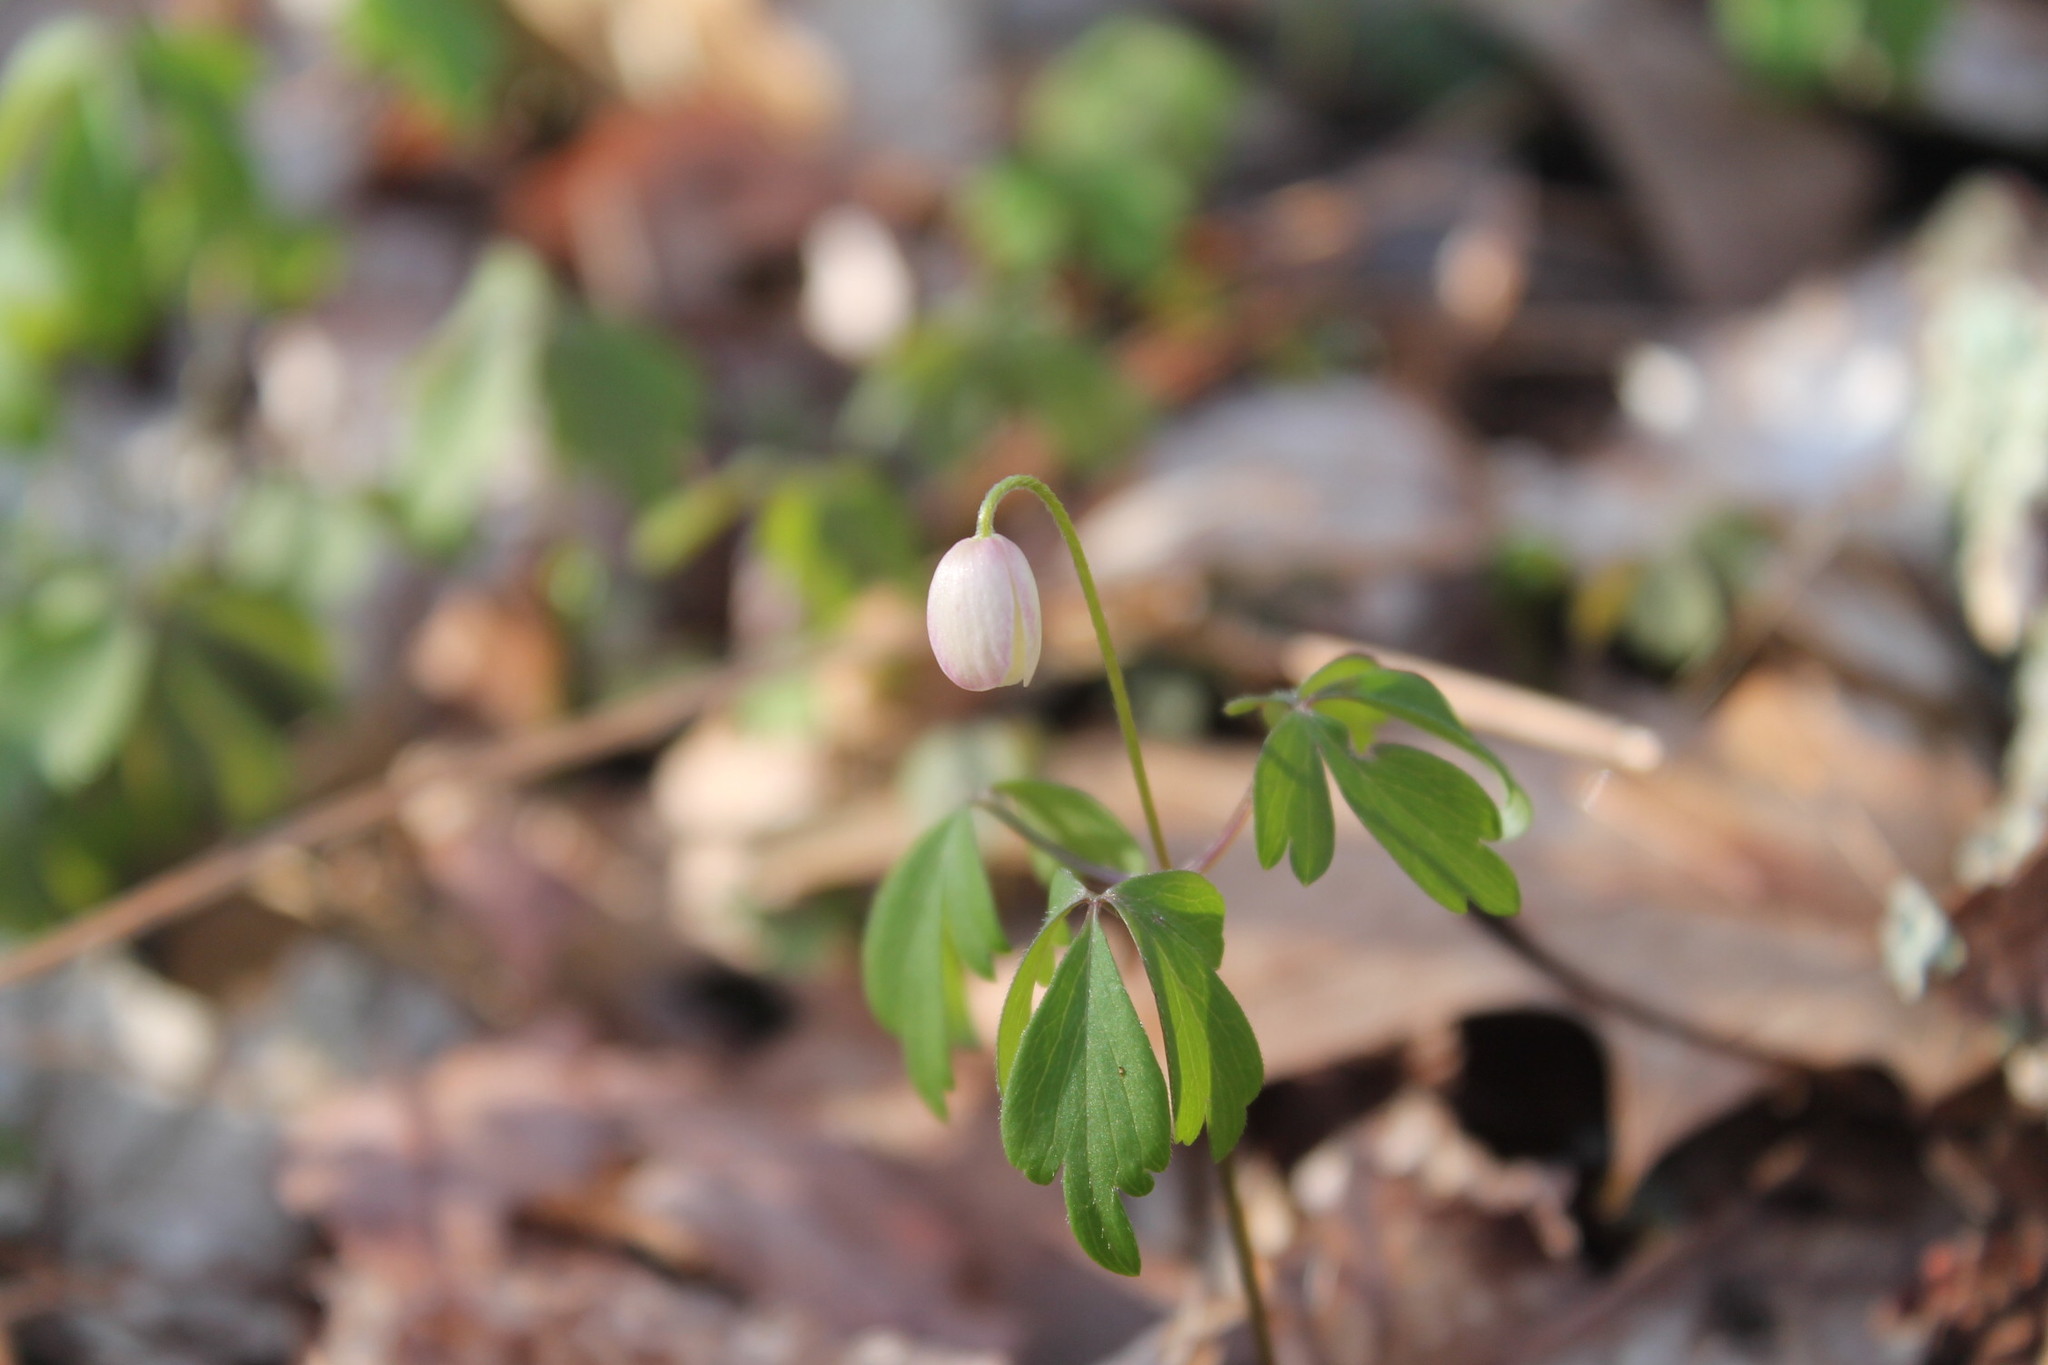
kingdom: Plantae
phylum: Tracheophyta
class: Magnoliopsida
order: Ranunculales
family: Ranunculaceae
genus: Anemone
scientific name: Anemone quinquefolia
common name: Wood anemone
